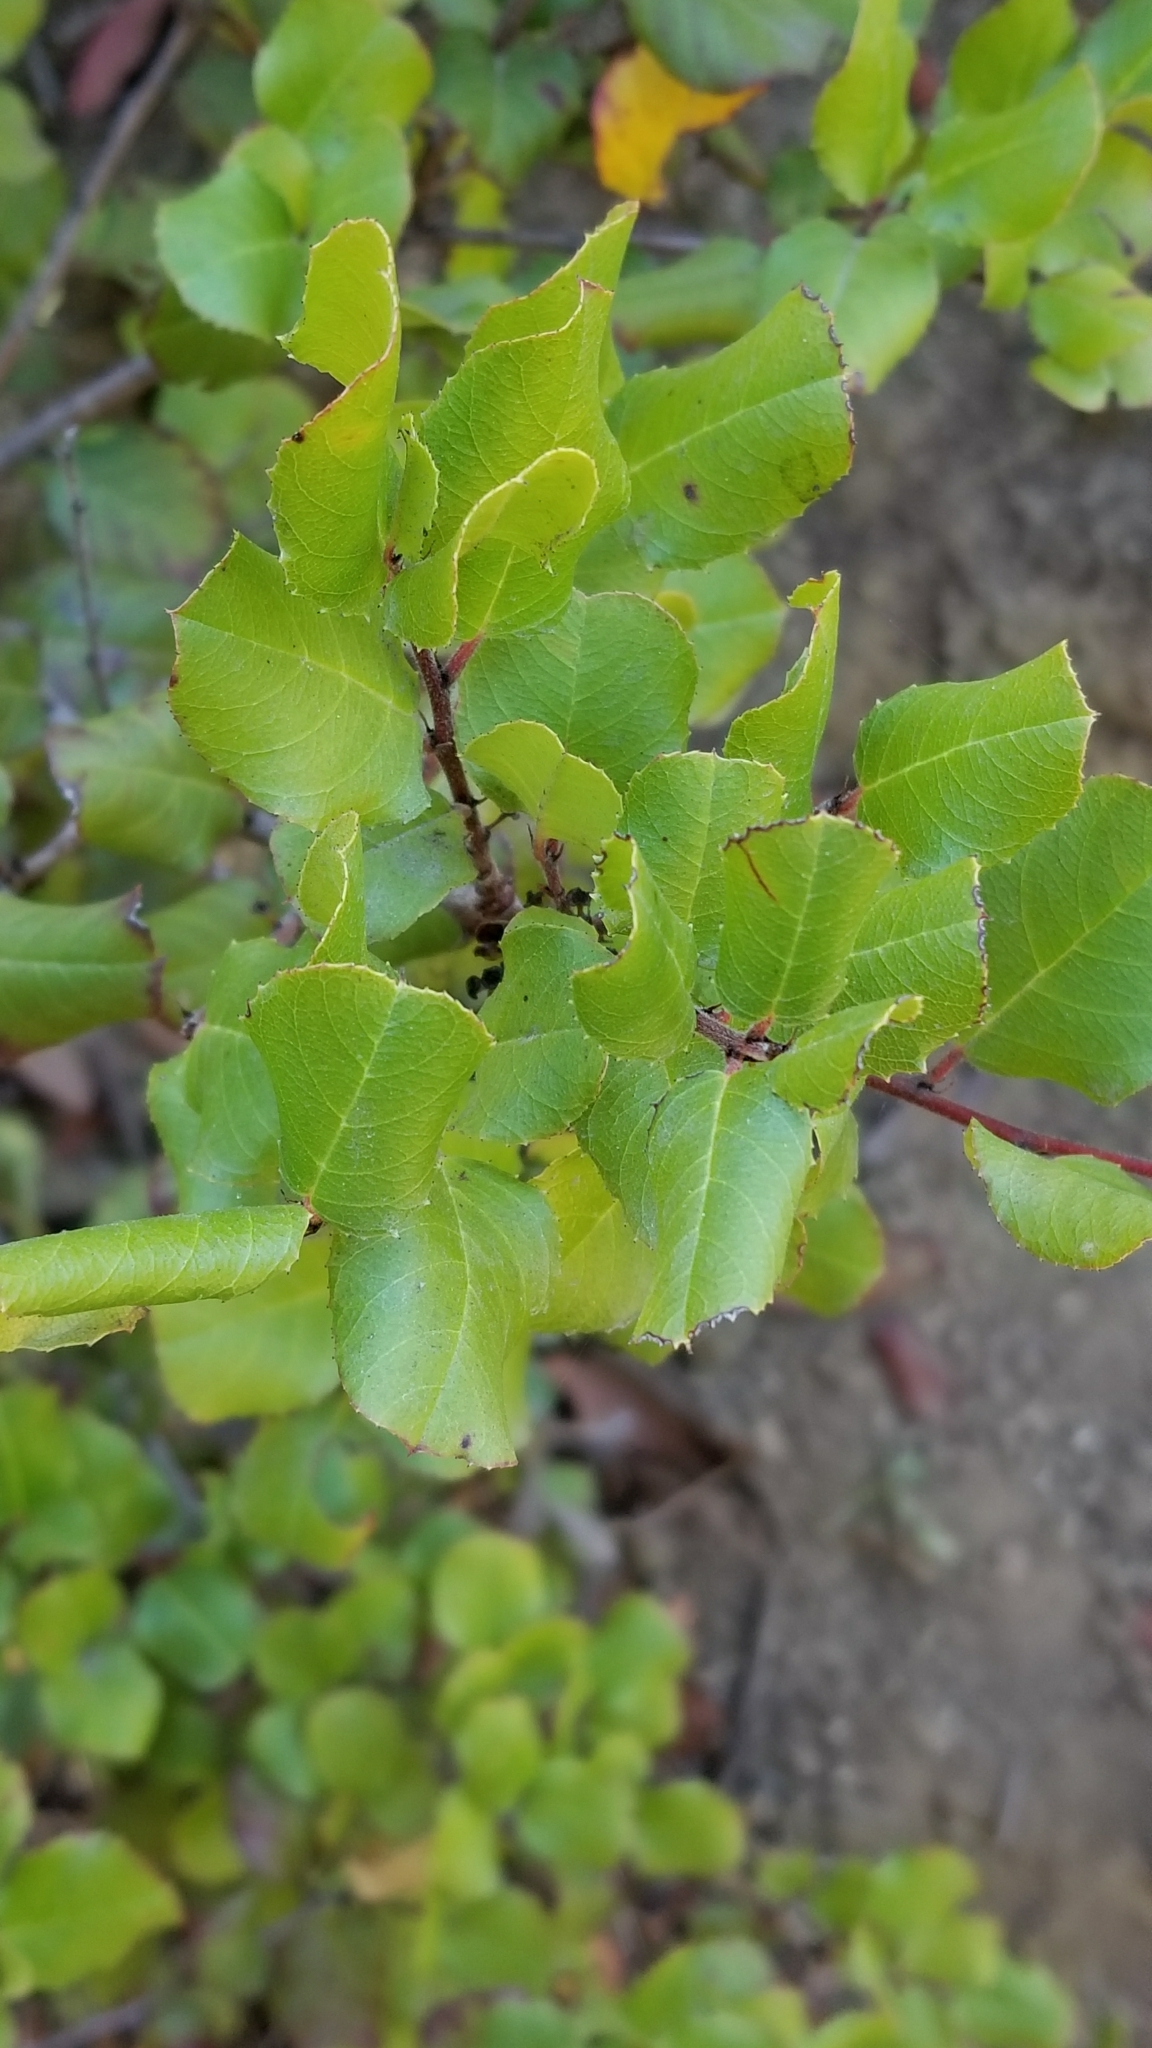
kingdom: Plantae
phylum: Tracheophyta
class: Magnoliopsida
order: Rosales
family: Rhamnaceae
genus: Endotropis
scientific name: Endotropis crocea
